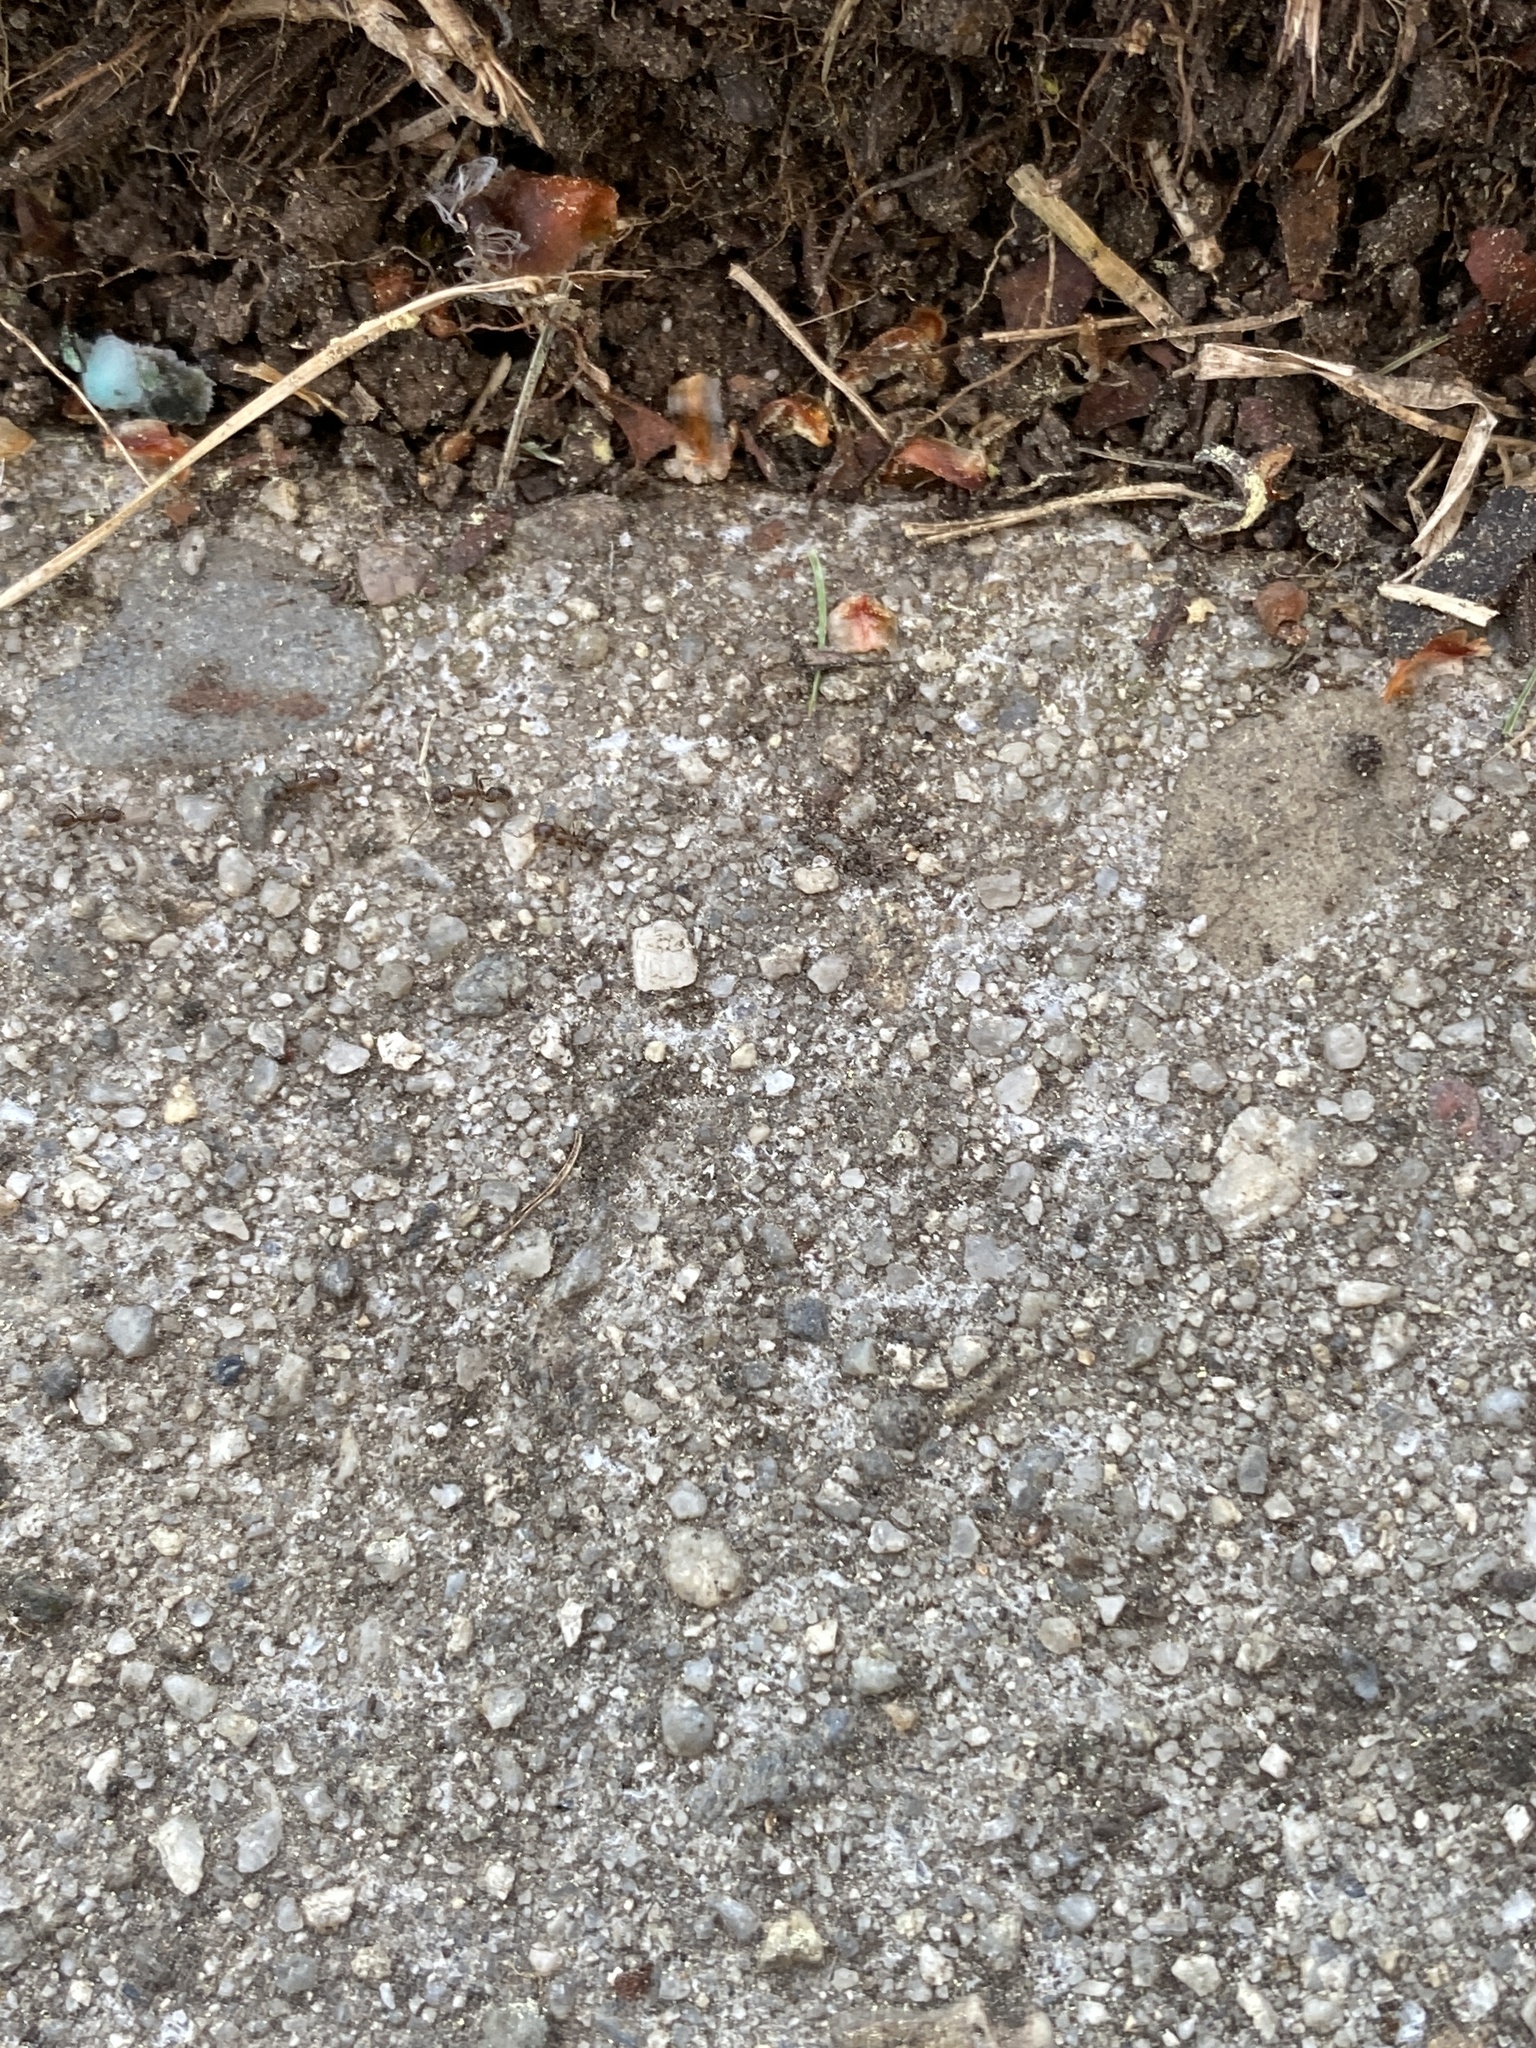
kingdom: Animalia
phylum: Arthropoda
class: Insecta
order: Hymenoptera
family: Formicidae
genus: Linepithema
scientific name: Linepithema humile
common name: Argentine ant
